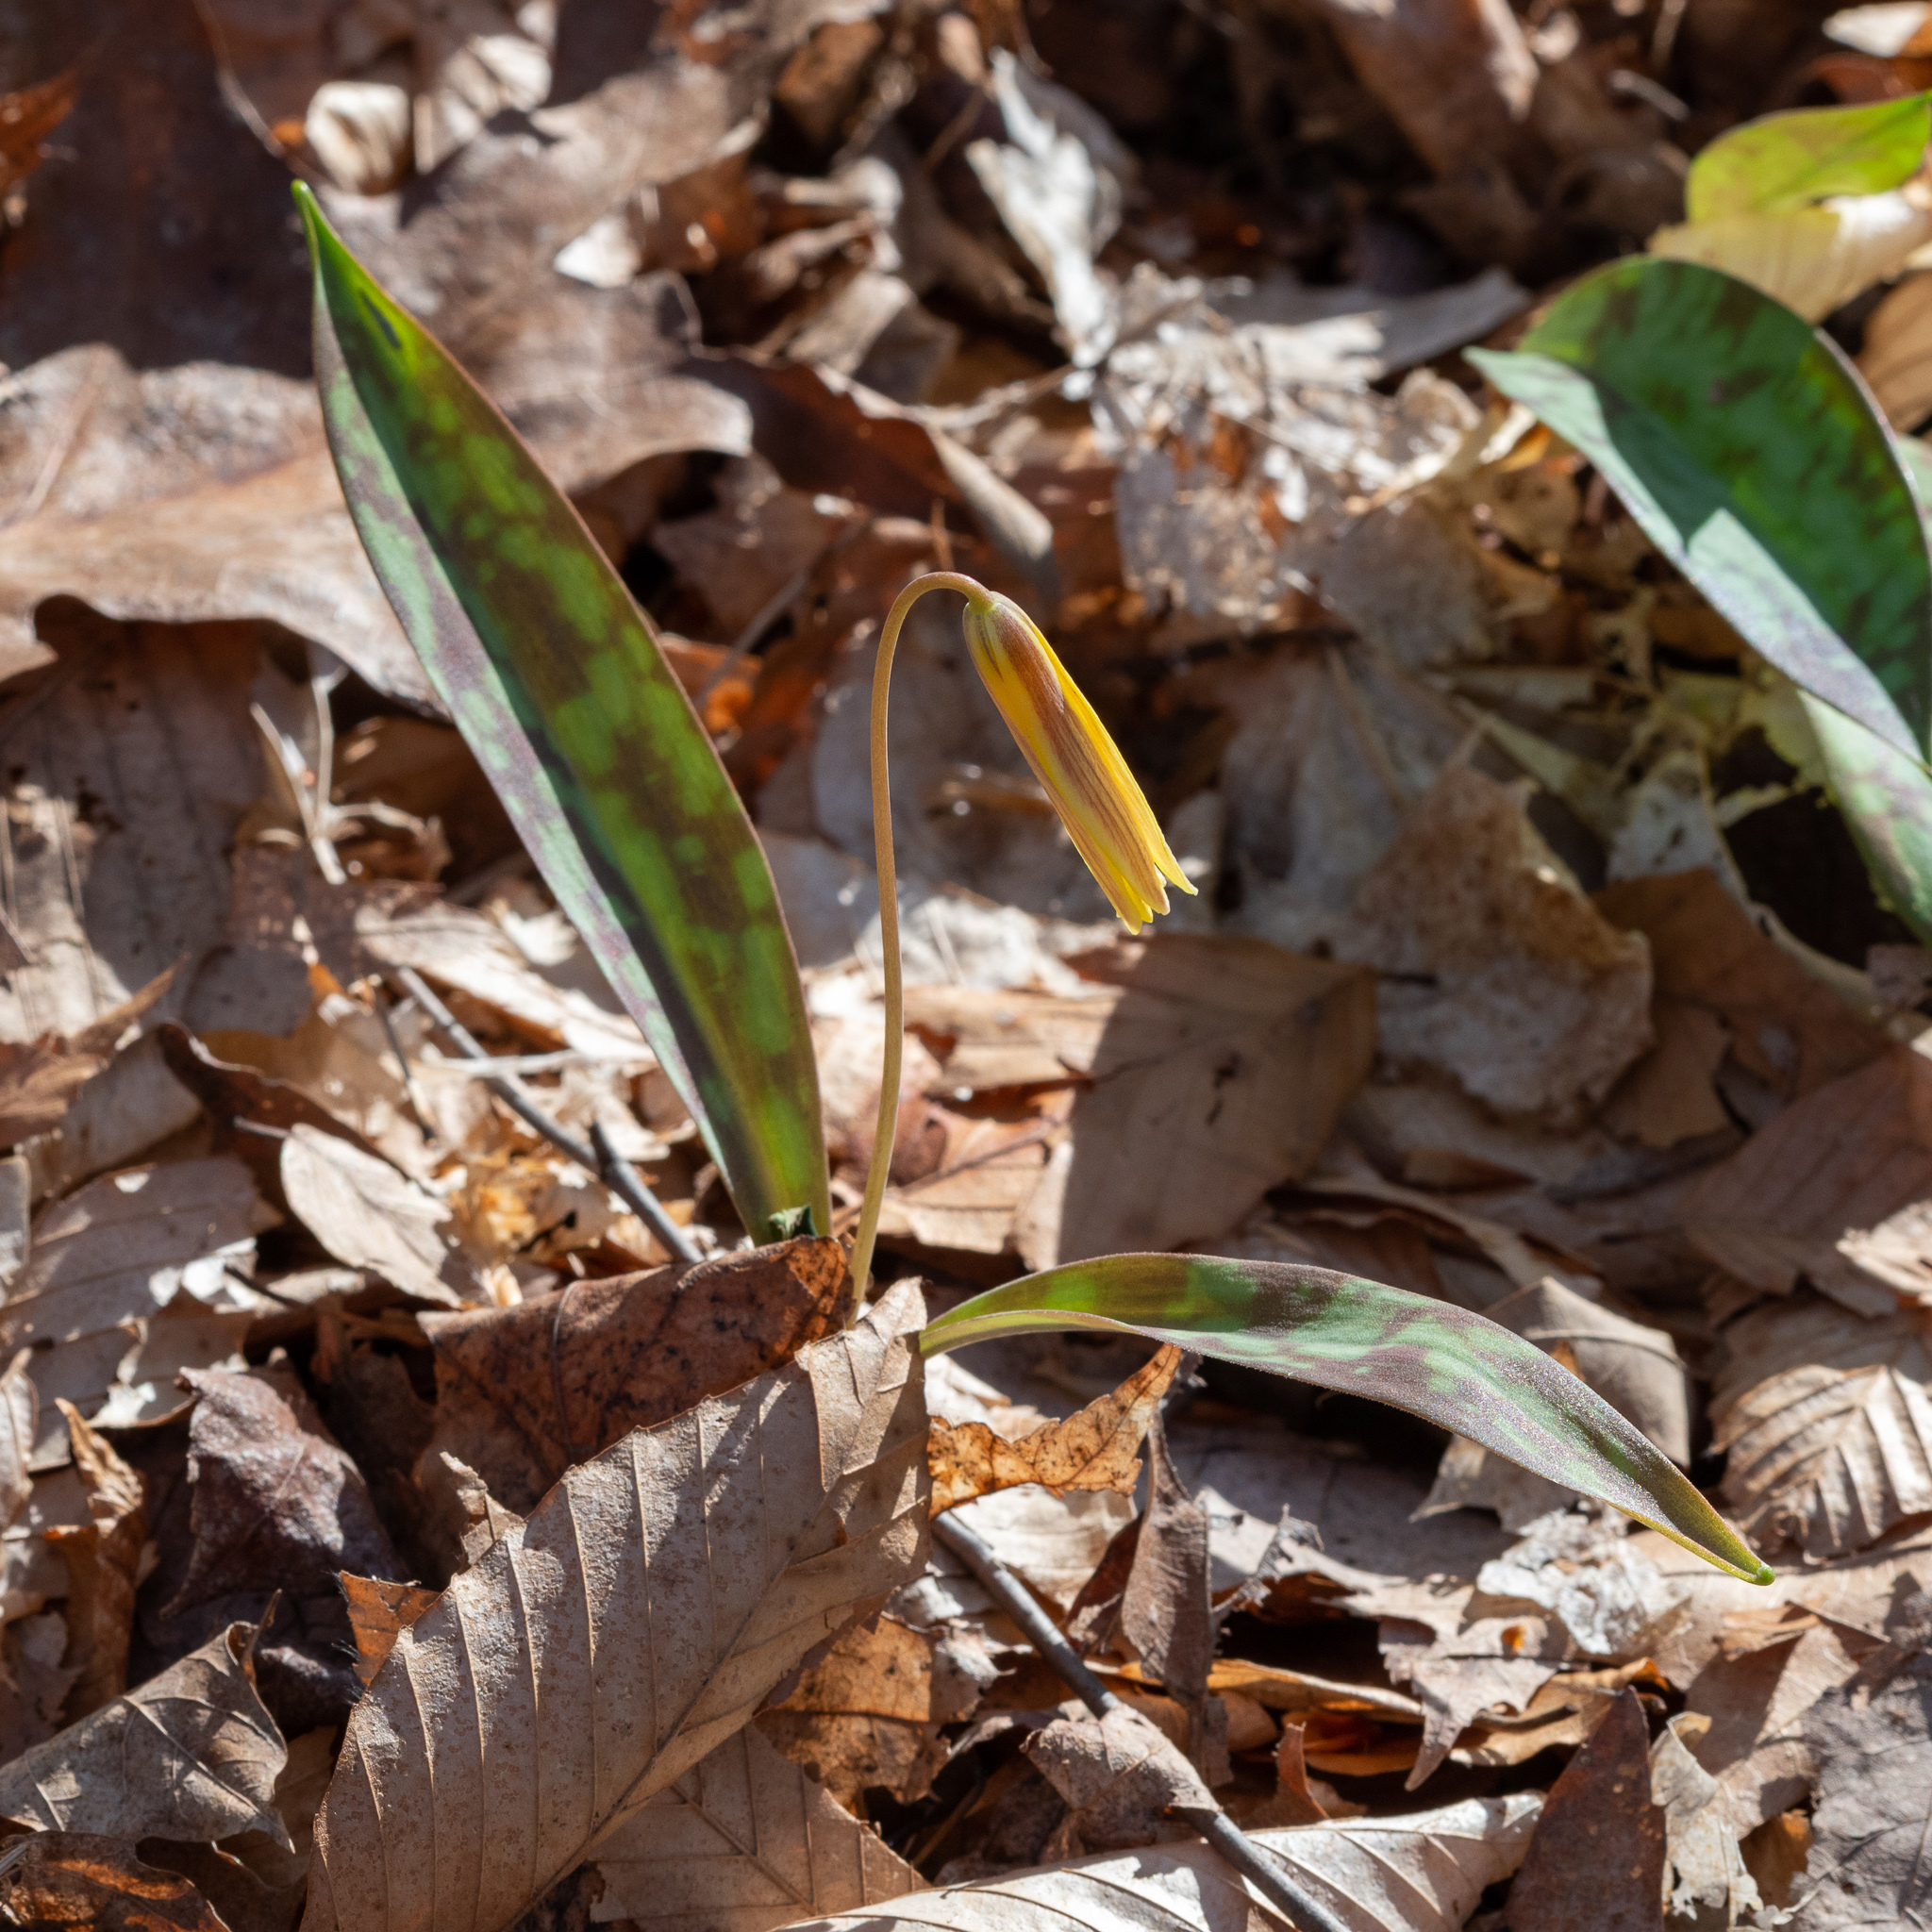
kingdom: Plantae
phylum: Tracheophyta
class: Liliopsida
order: Liliales
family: Liliaceae
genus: Erythronium
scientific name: Erythronium americanum
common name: Yellow adder's-tongue
